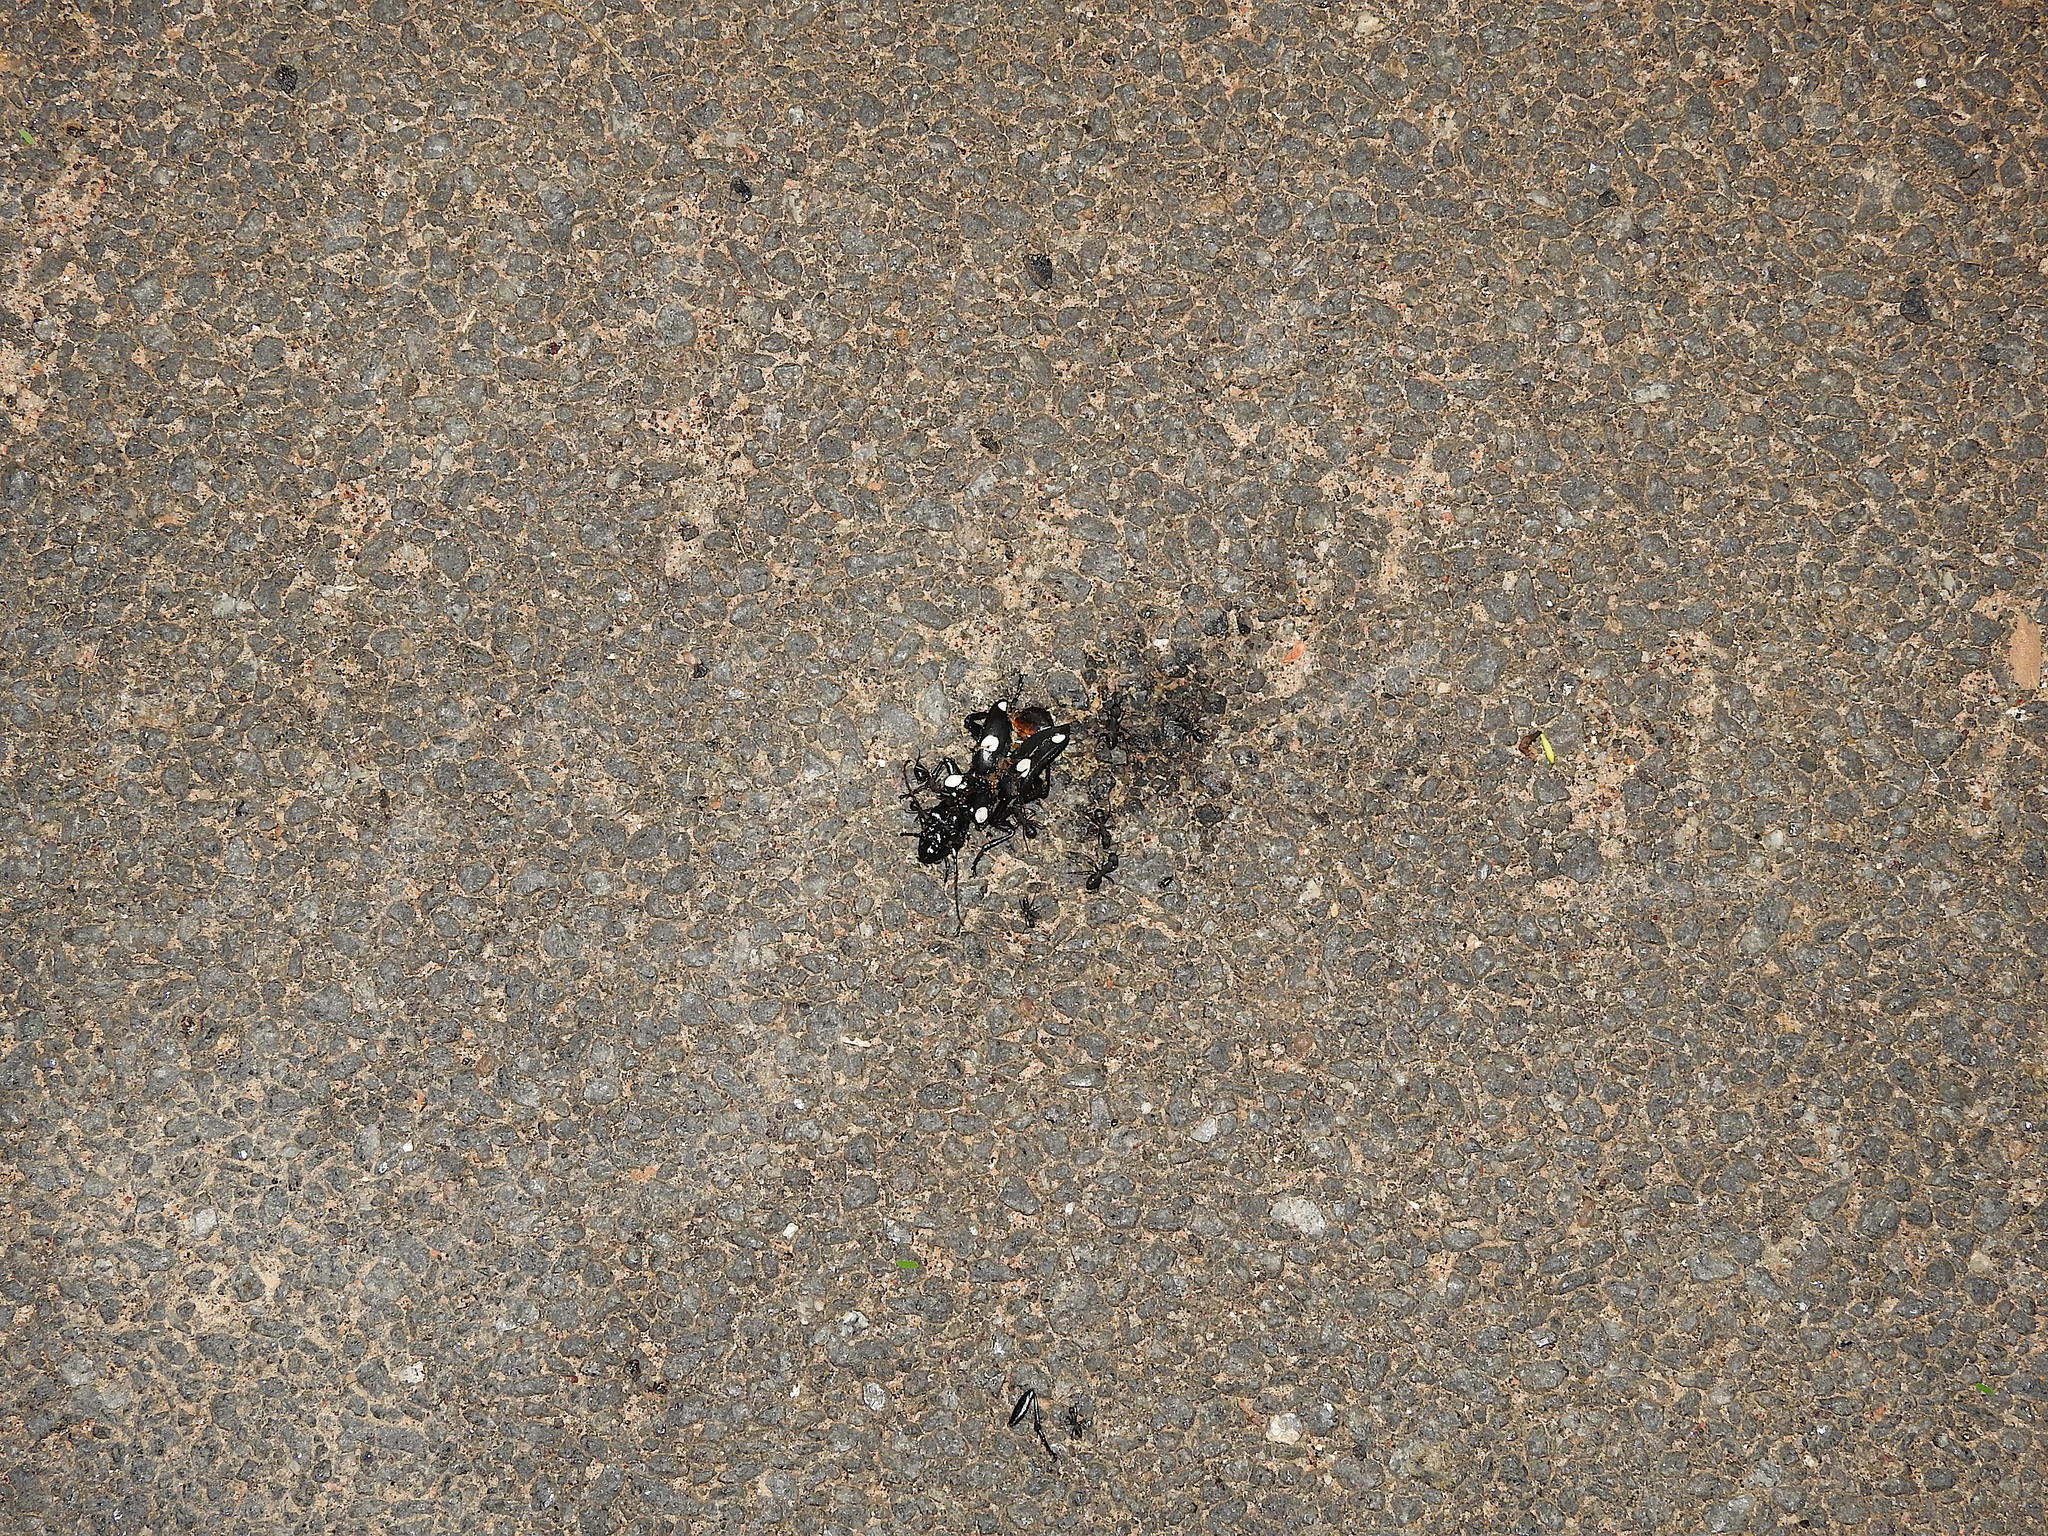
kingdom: Animalia
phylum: Arthropoda
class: Insecta
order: Coleoptera
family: Carabidae
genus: Anthia
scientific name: Anthia sexguttata
